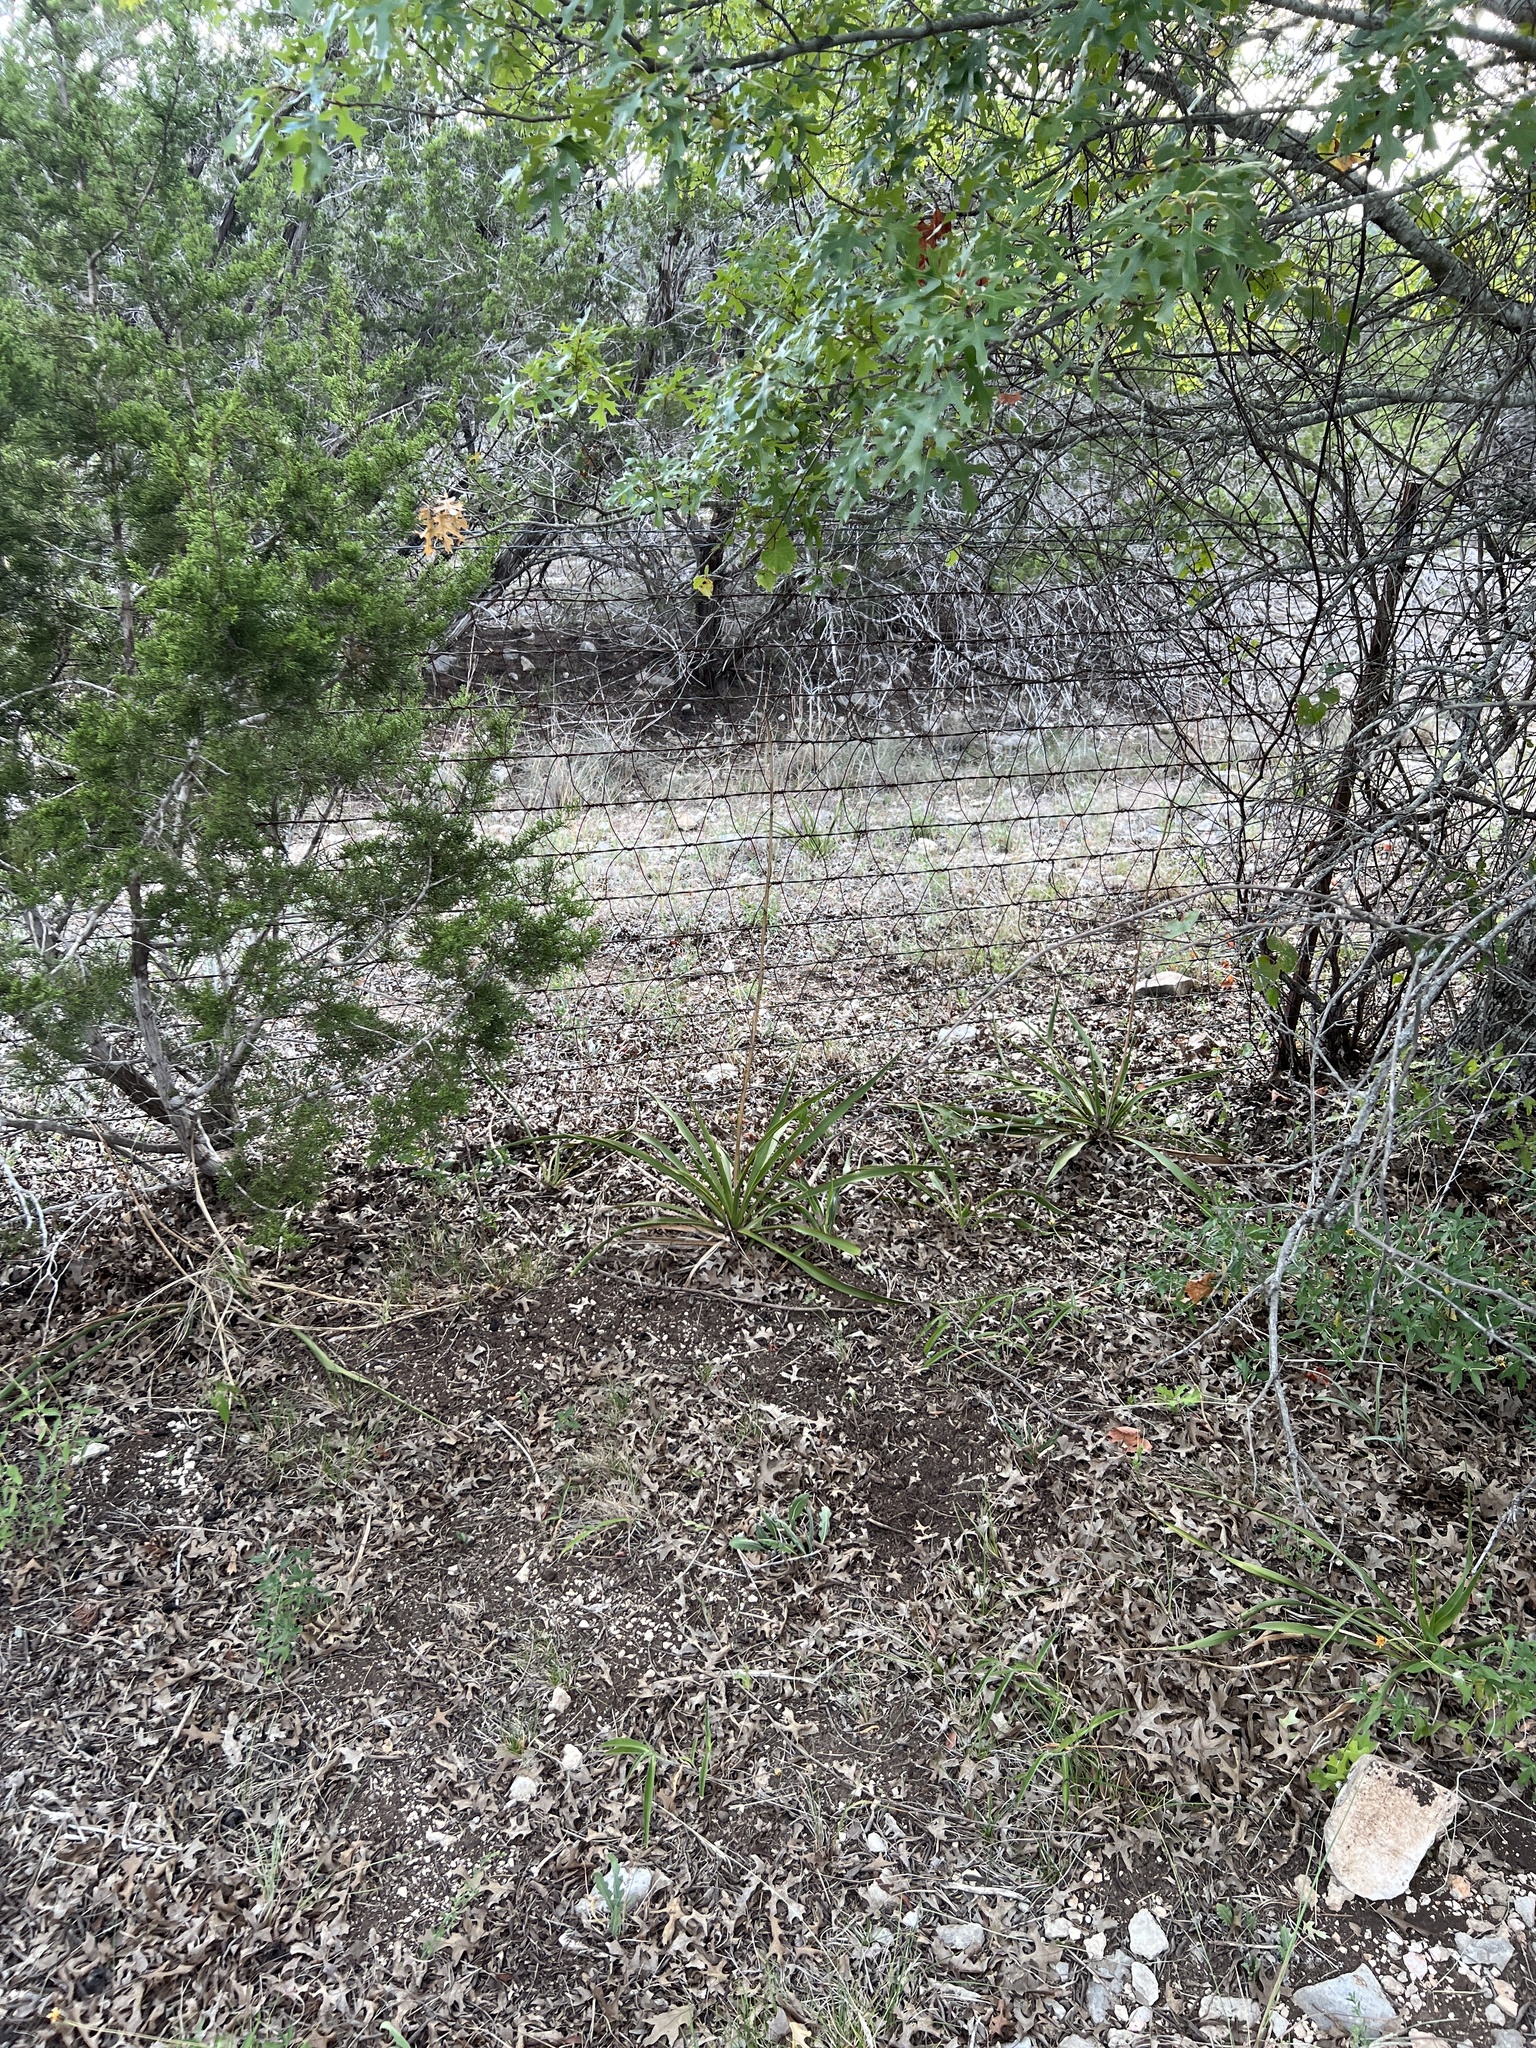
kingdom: Plantae
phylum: Tracheophyta
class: Liliopsida
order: Asparagales
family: Asparagaceae
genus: Yucca
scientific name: Yucca rupicola
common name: Twisted-leaf spanish-dagger
